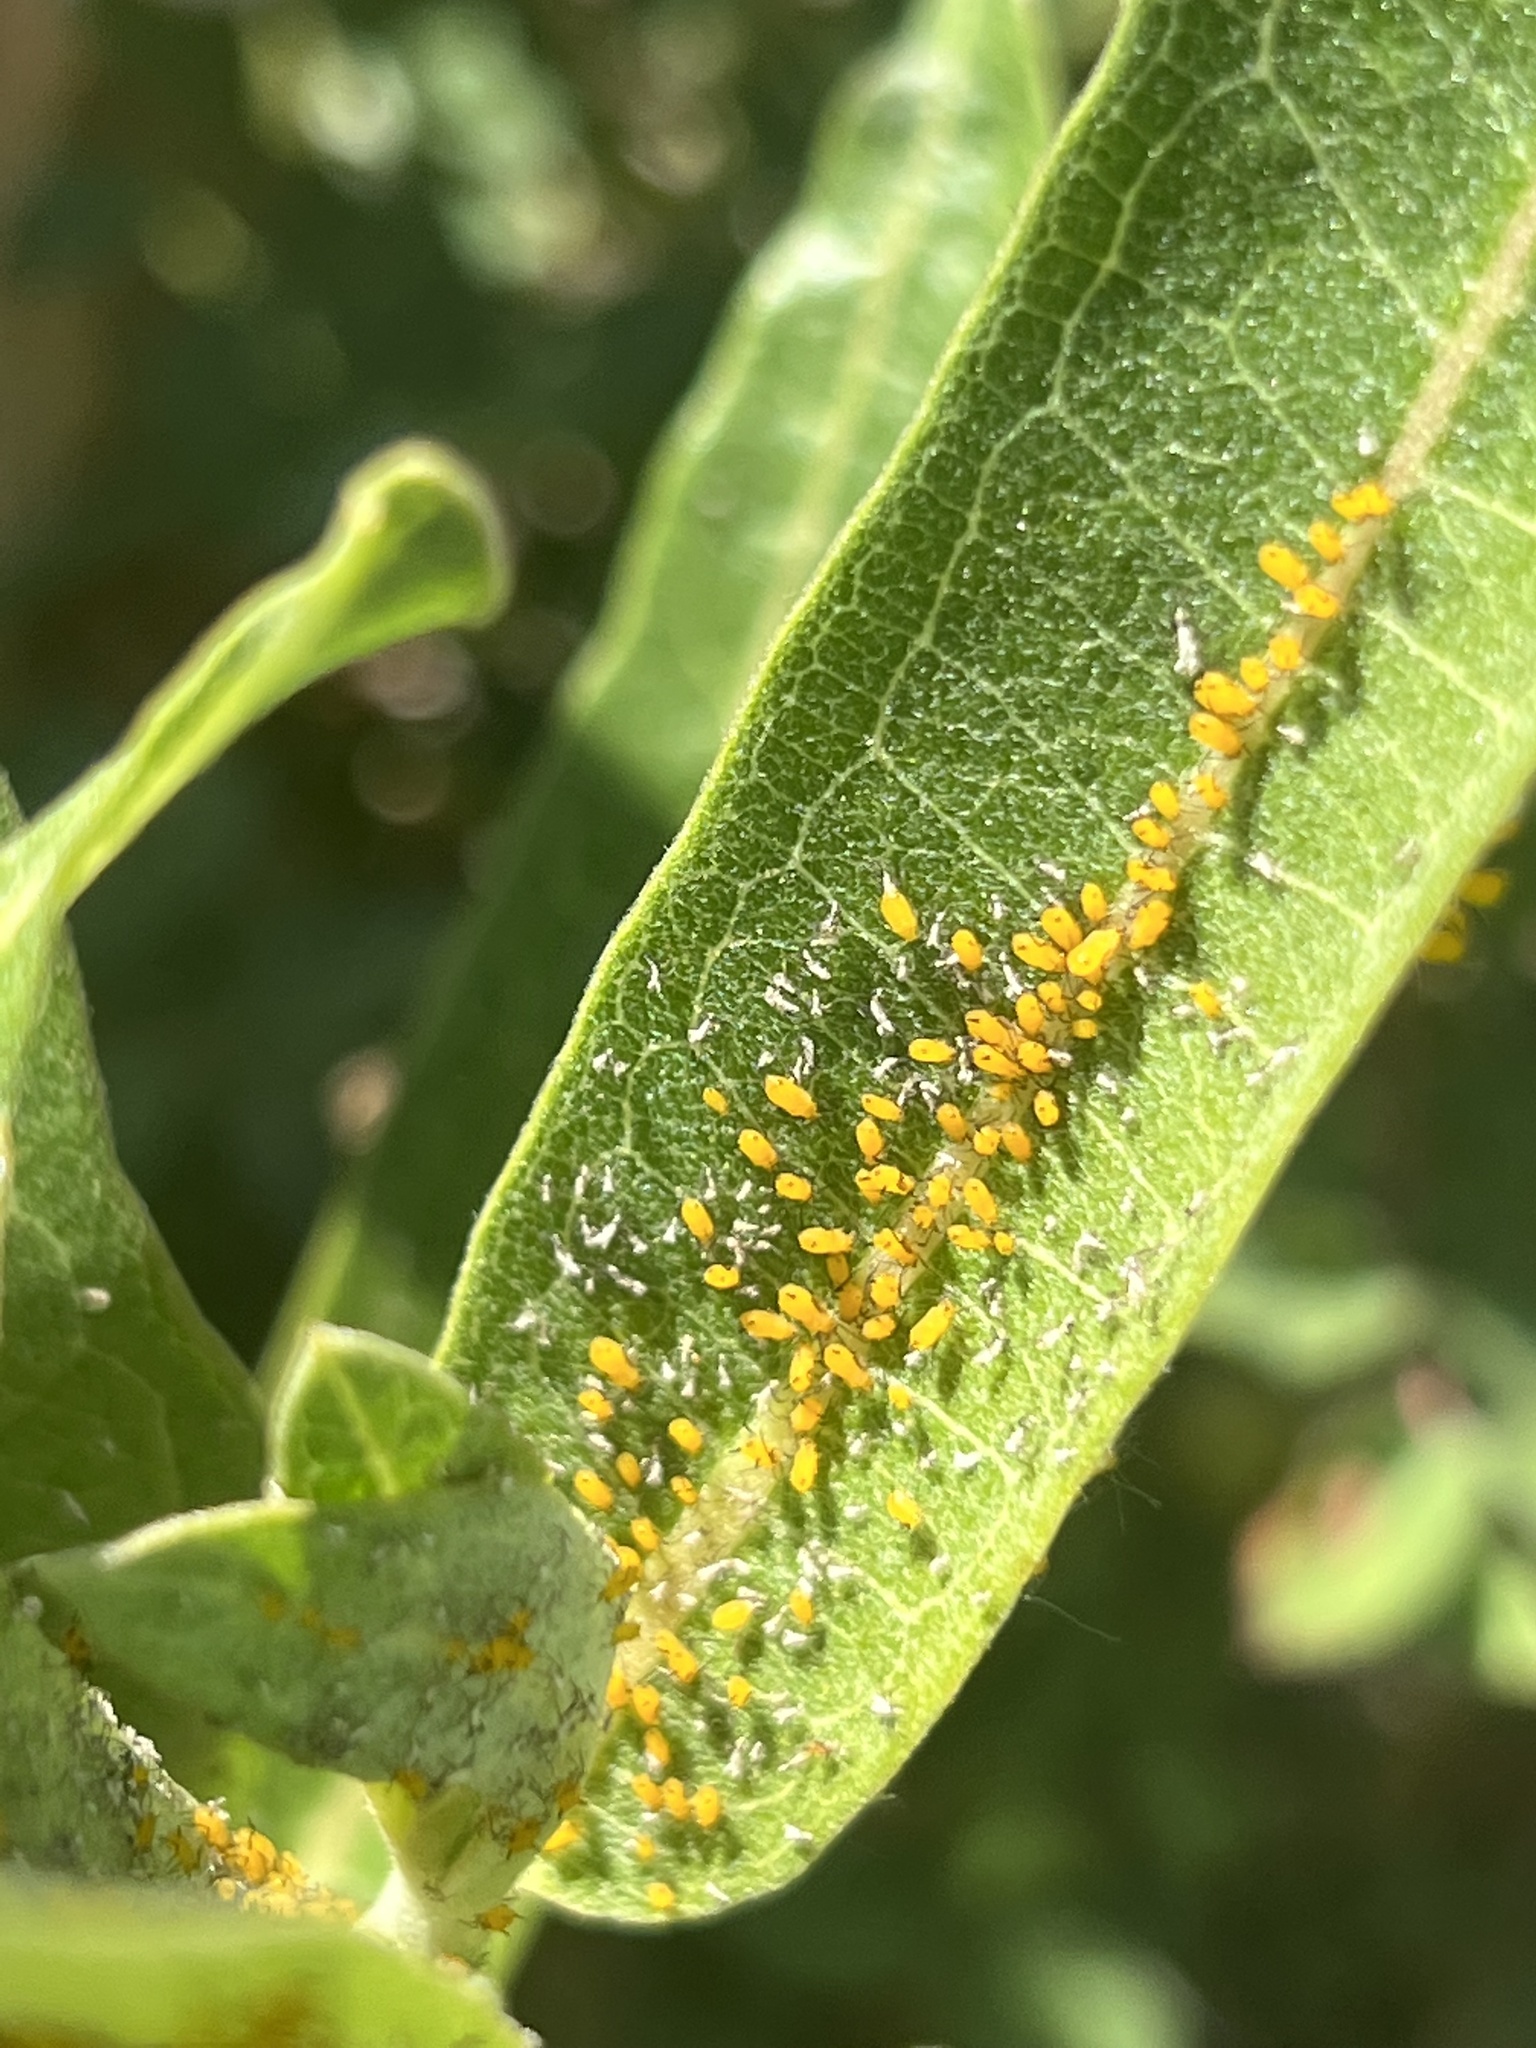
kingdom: Animalia
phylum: Arthropoda
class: Insecta
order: Hemiptera
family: Aphididae
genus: Aphis
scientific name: Aphis nerii
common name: Oleander aphid
